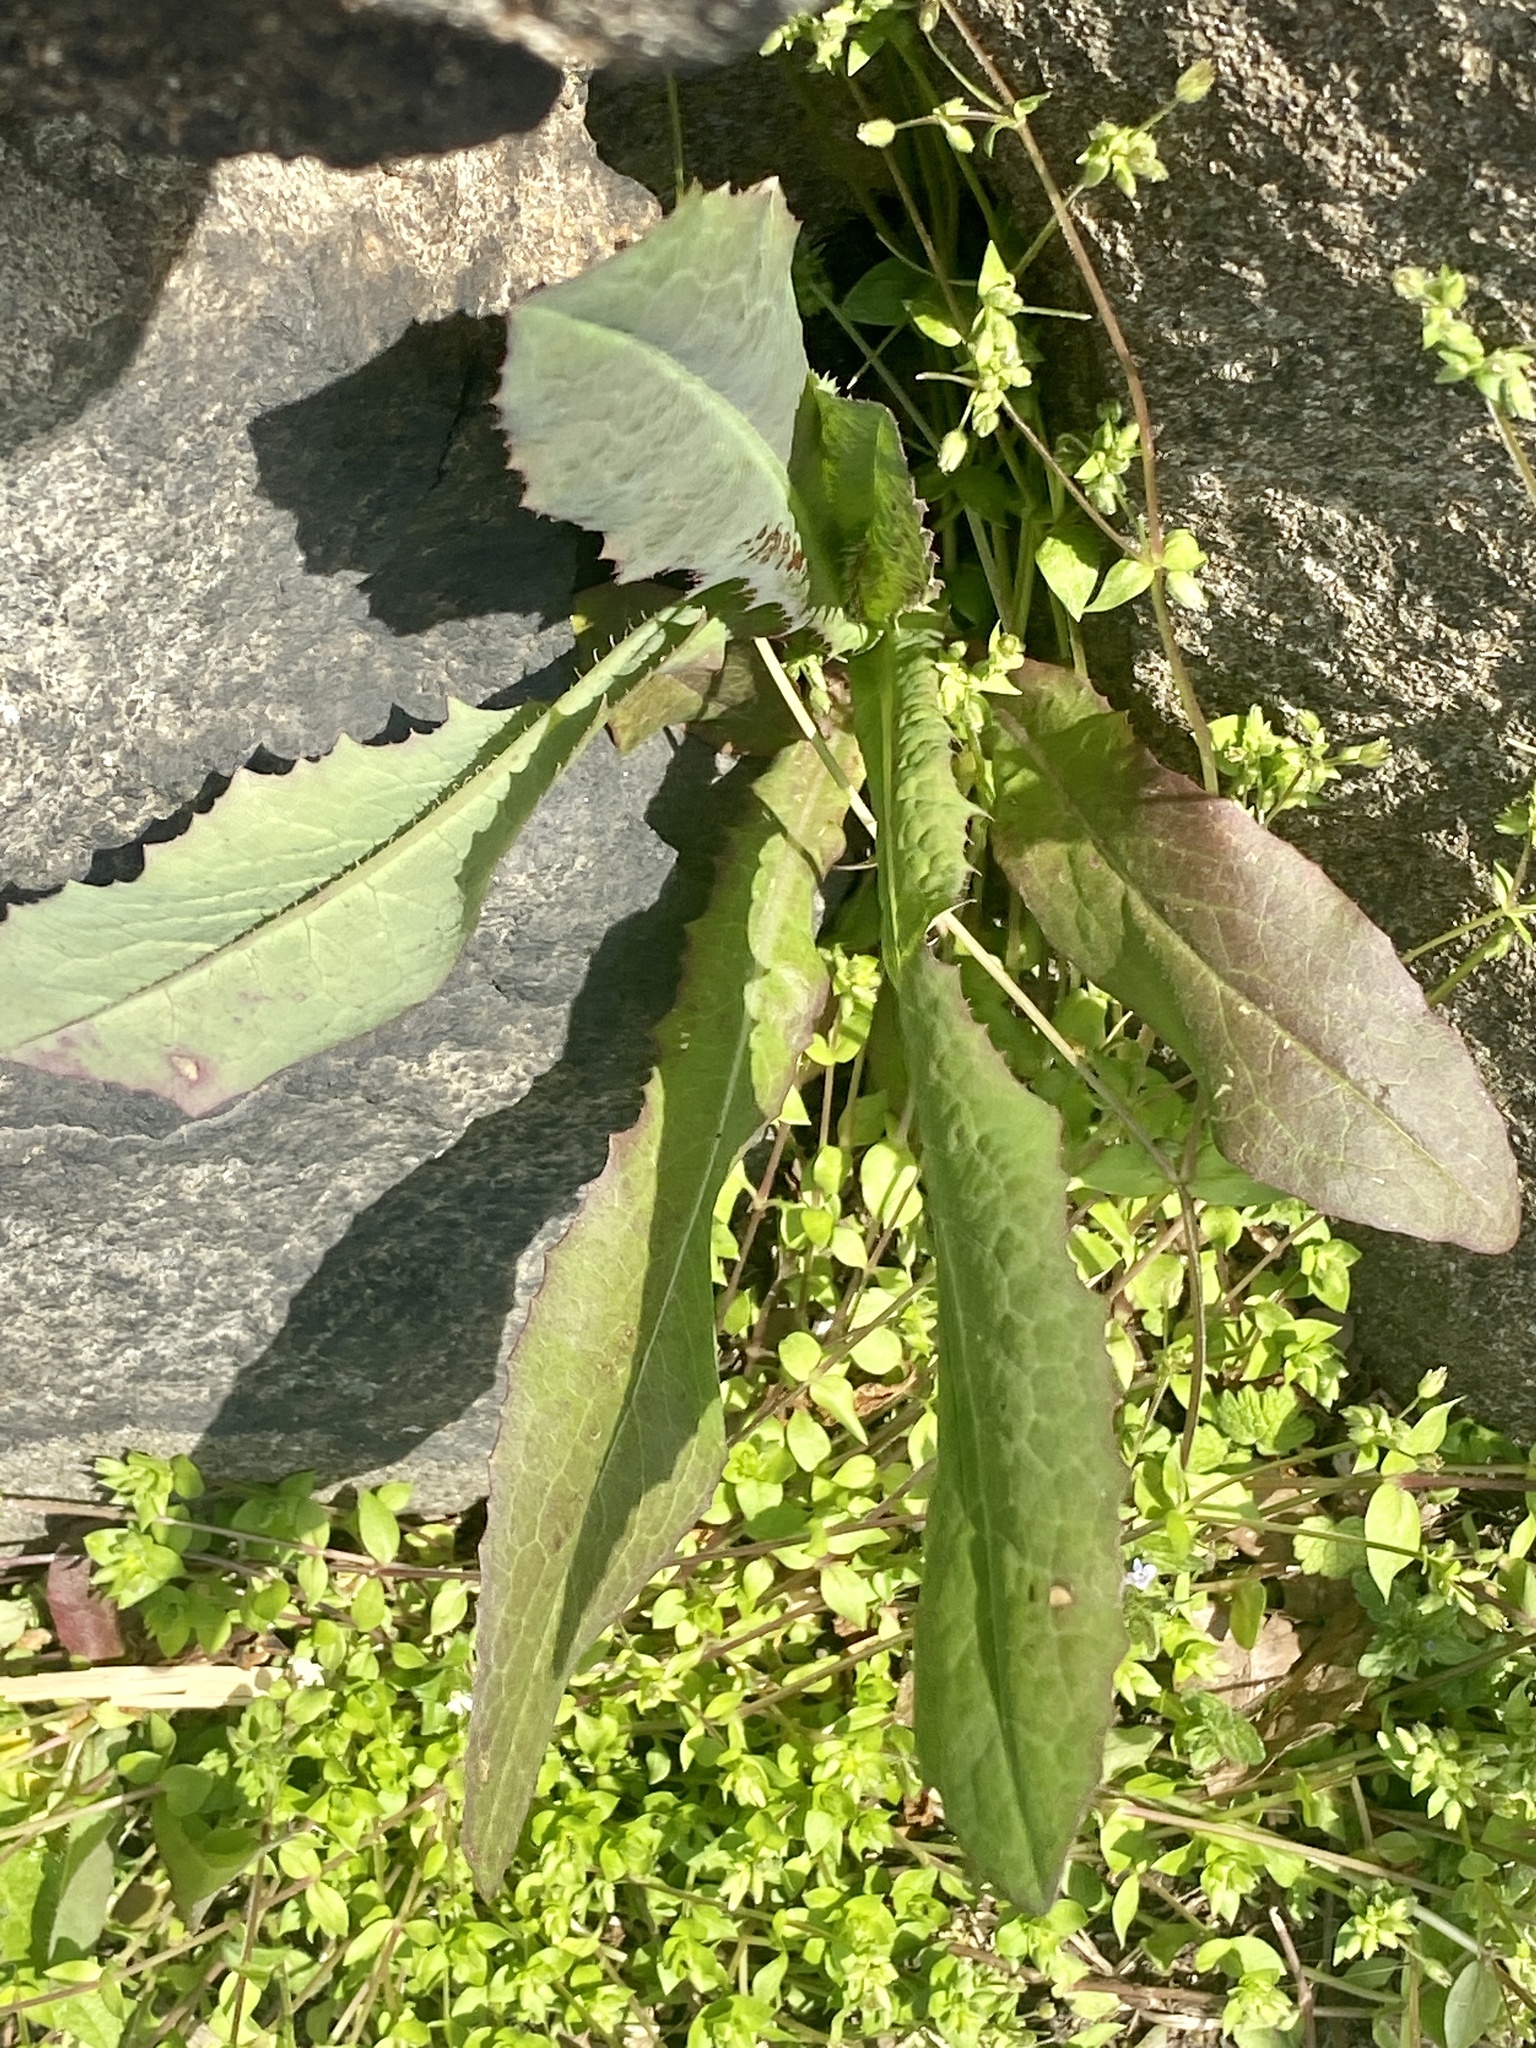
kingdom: Plantae
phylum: Tracheophyta
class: Magnoliopsida
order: Asterales
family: Asteraceae
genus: Lactuca
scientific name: Lactuca serriola
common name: Prickly lettuce
